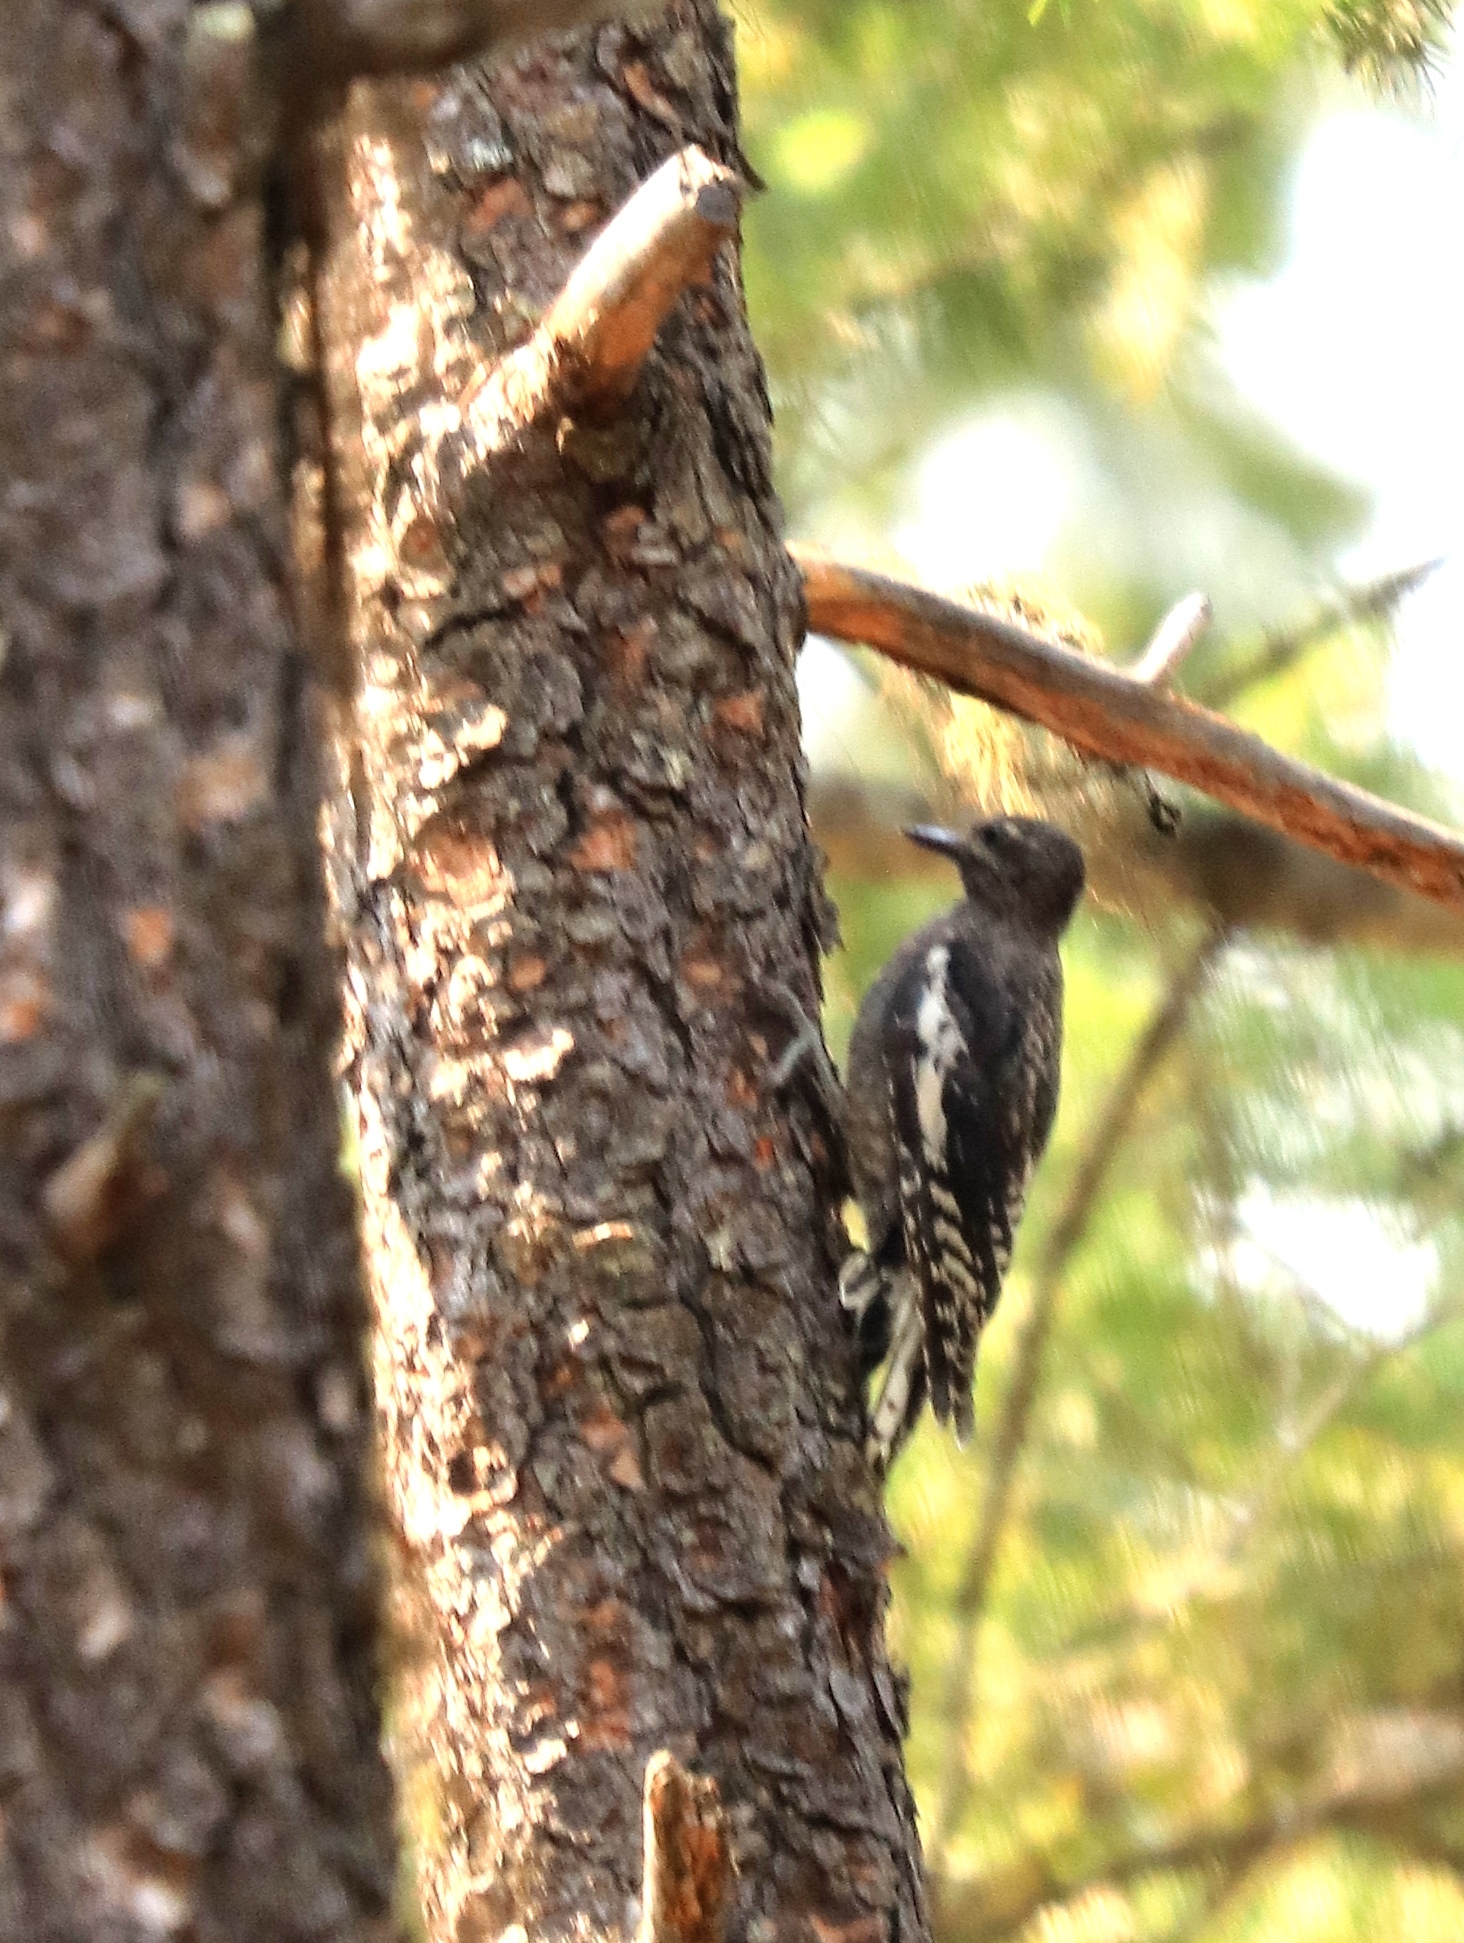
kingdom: Animalia
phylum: Chordata
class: Aves
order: Piciformes
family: Picidae
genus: Sphyrapicus
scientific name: Sphyrapicus nuchalis
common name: Red-naped sapsucker
